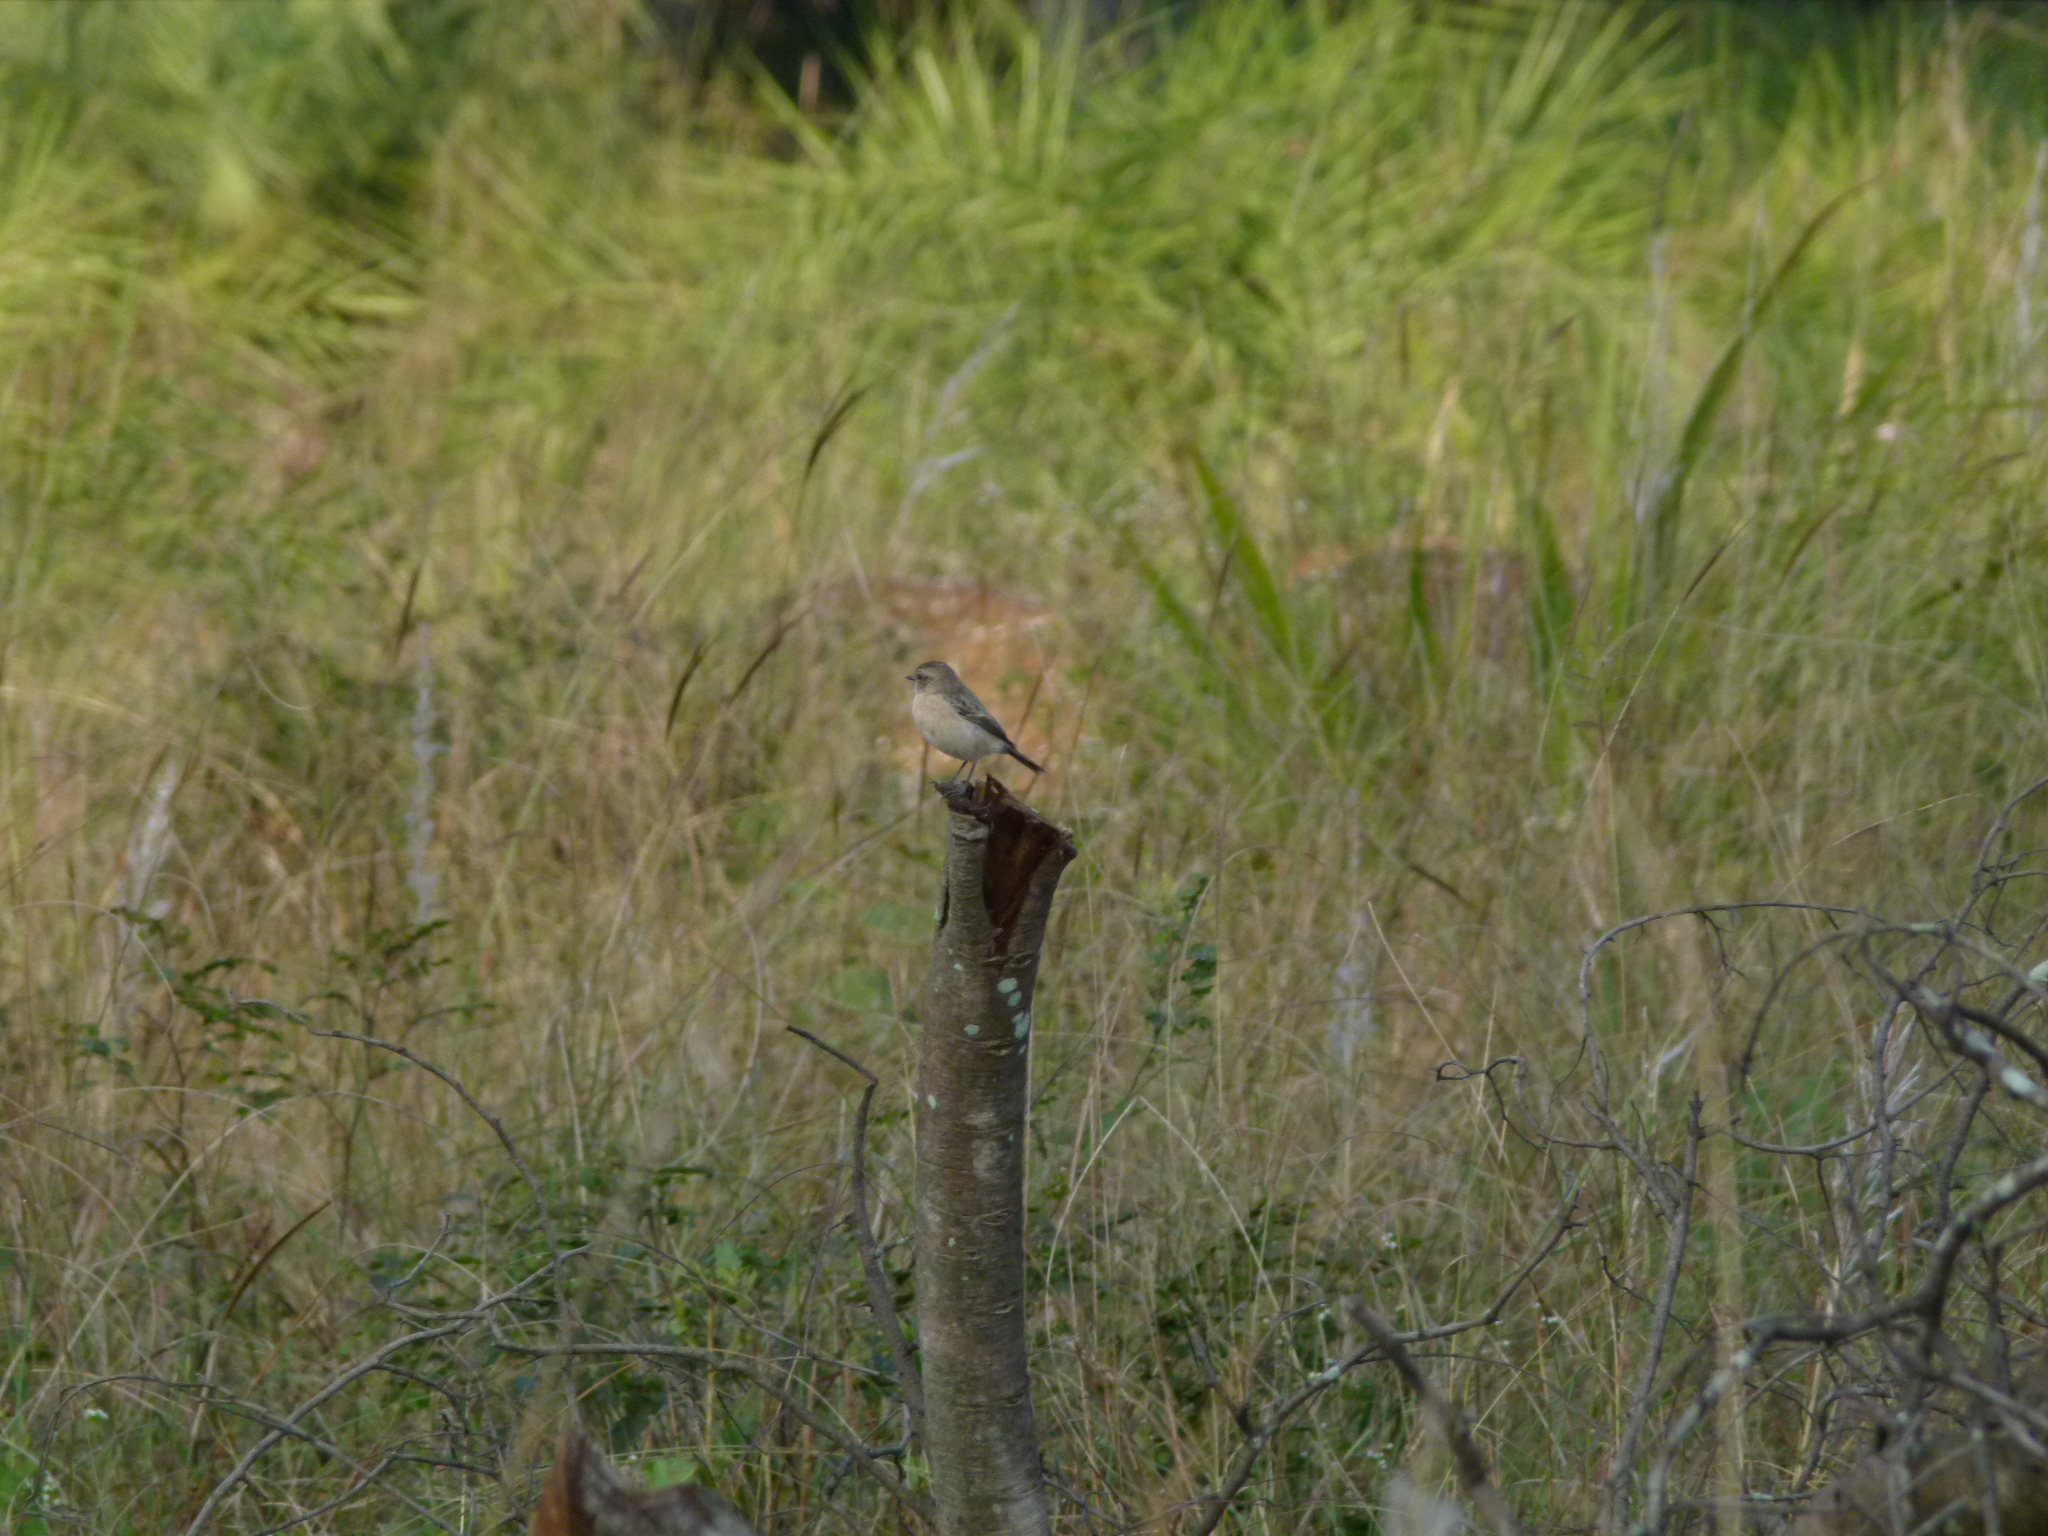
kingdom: Animalia
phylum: Chordata
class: Aves
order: Passeriformes
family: Muscicapidae
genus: Saxicola
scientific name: Saxicola maurus
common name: Siberian stonechat
